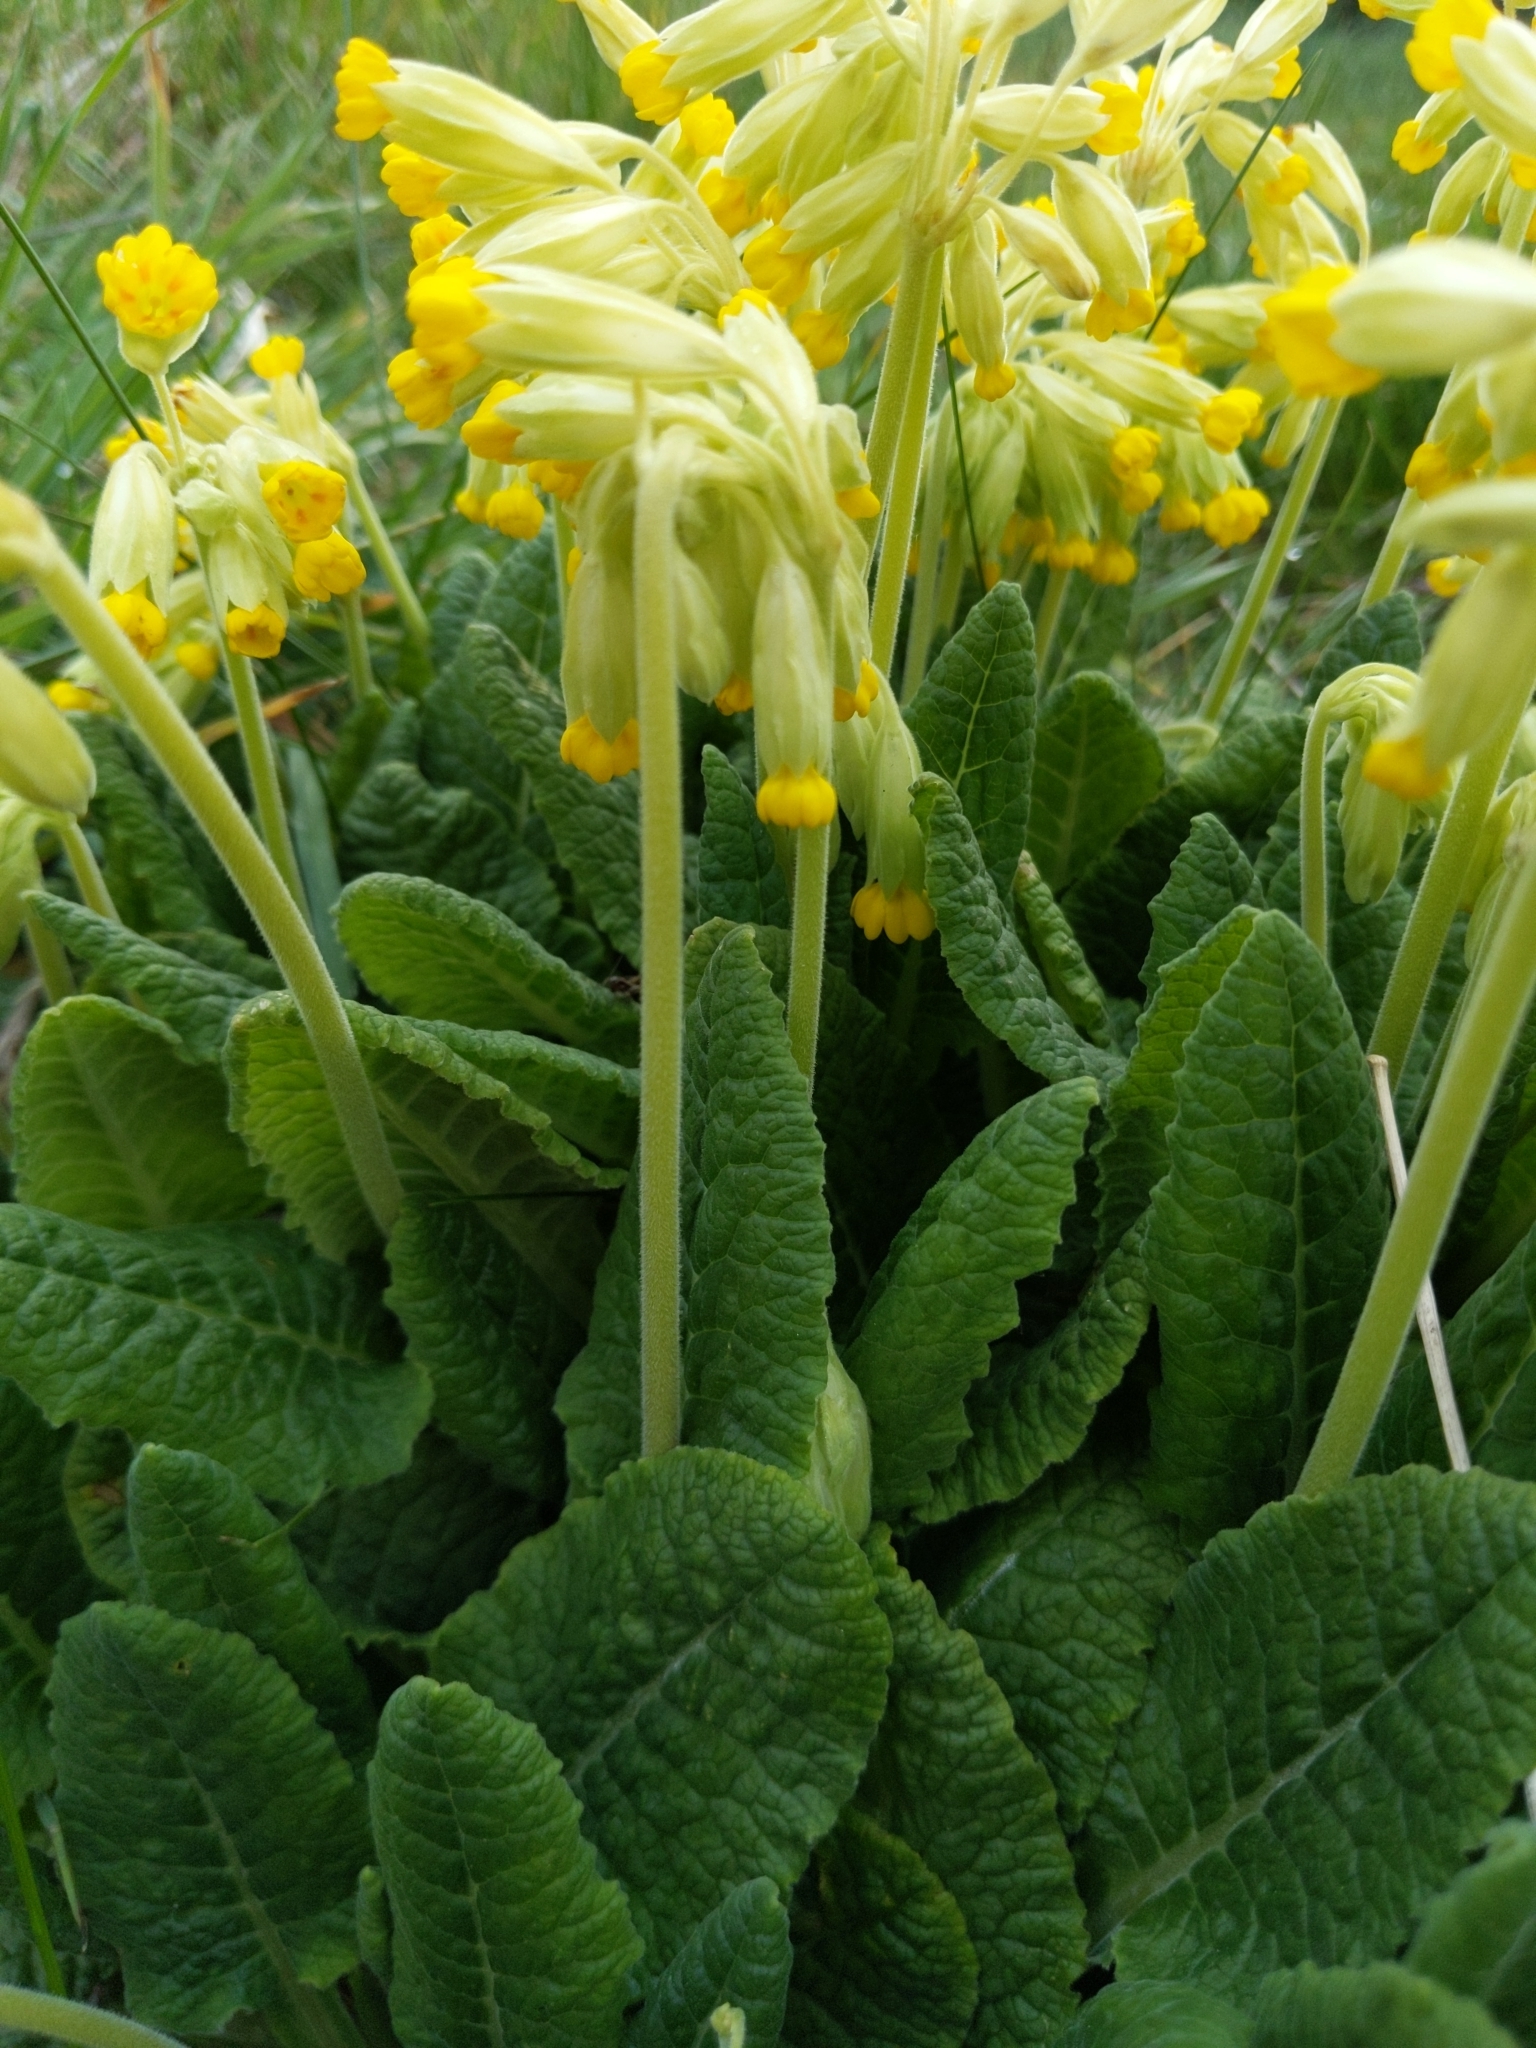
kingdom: Plantae
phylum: Tracheophyta
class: Magnoliopsida
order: Ericales
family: Primulaceae
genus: Primula
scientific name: Primula veris
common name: Cowslip
